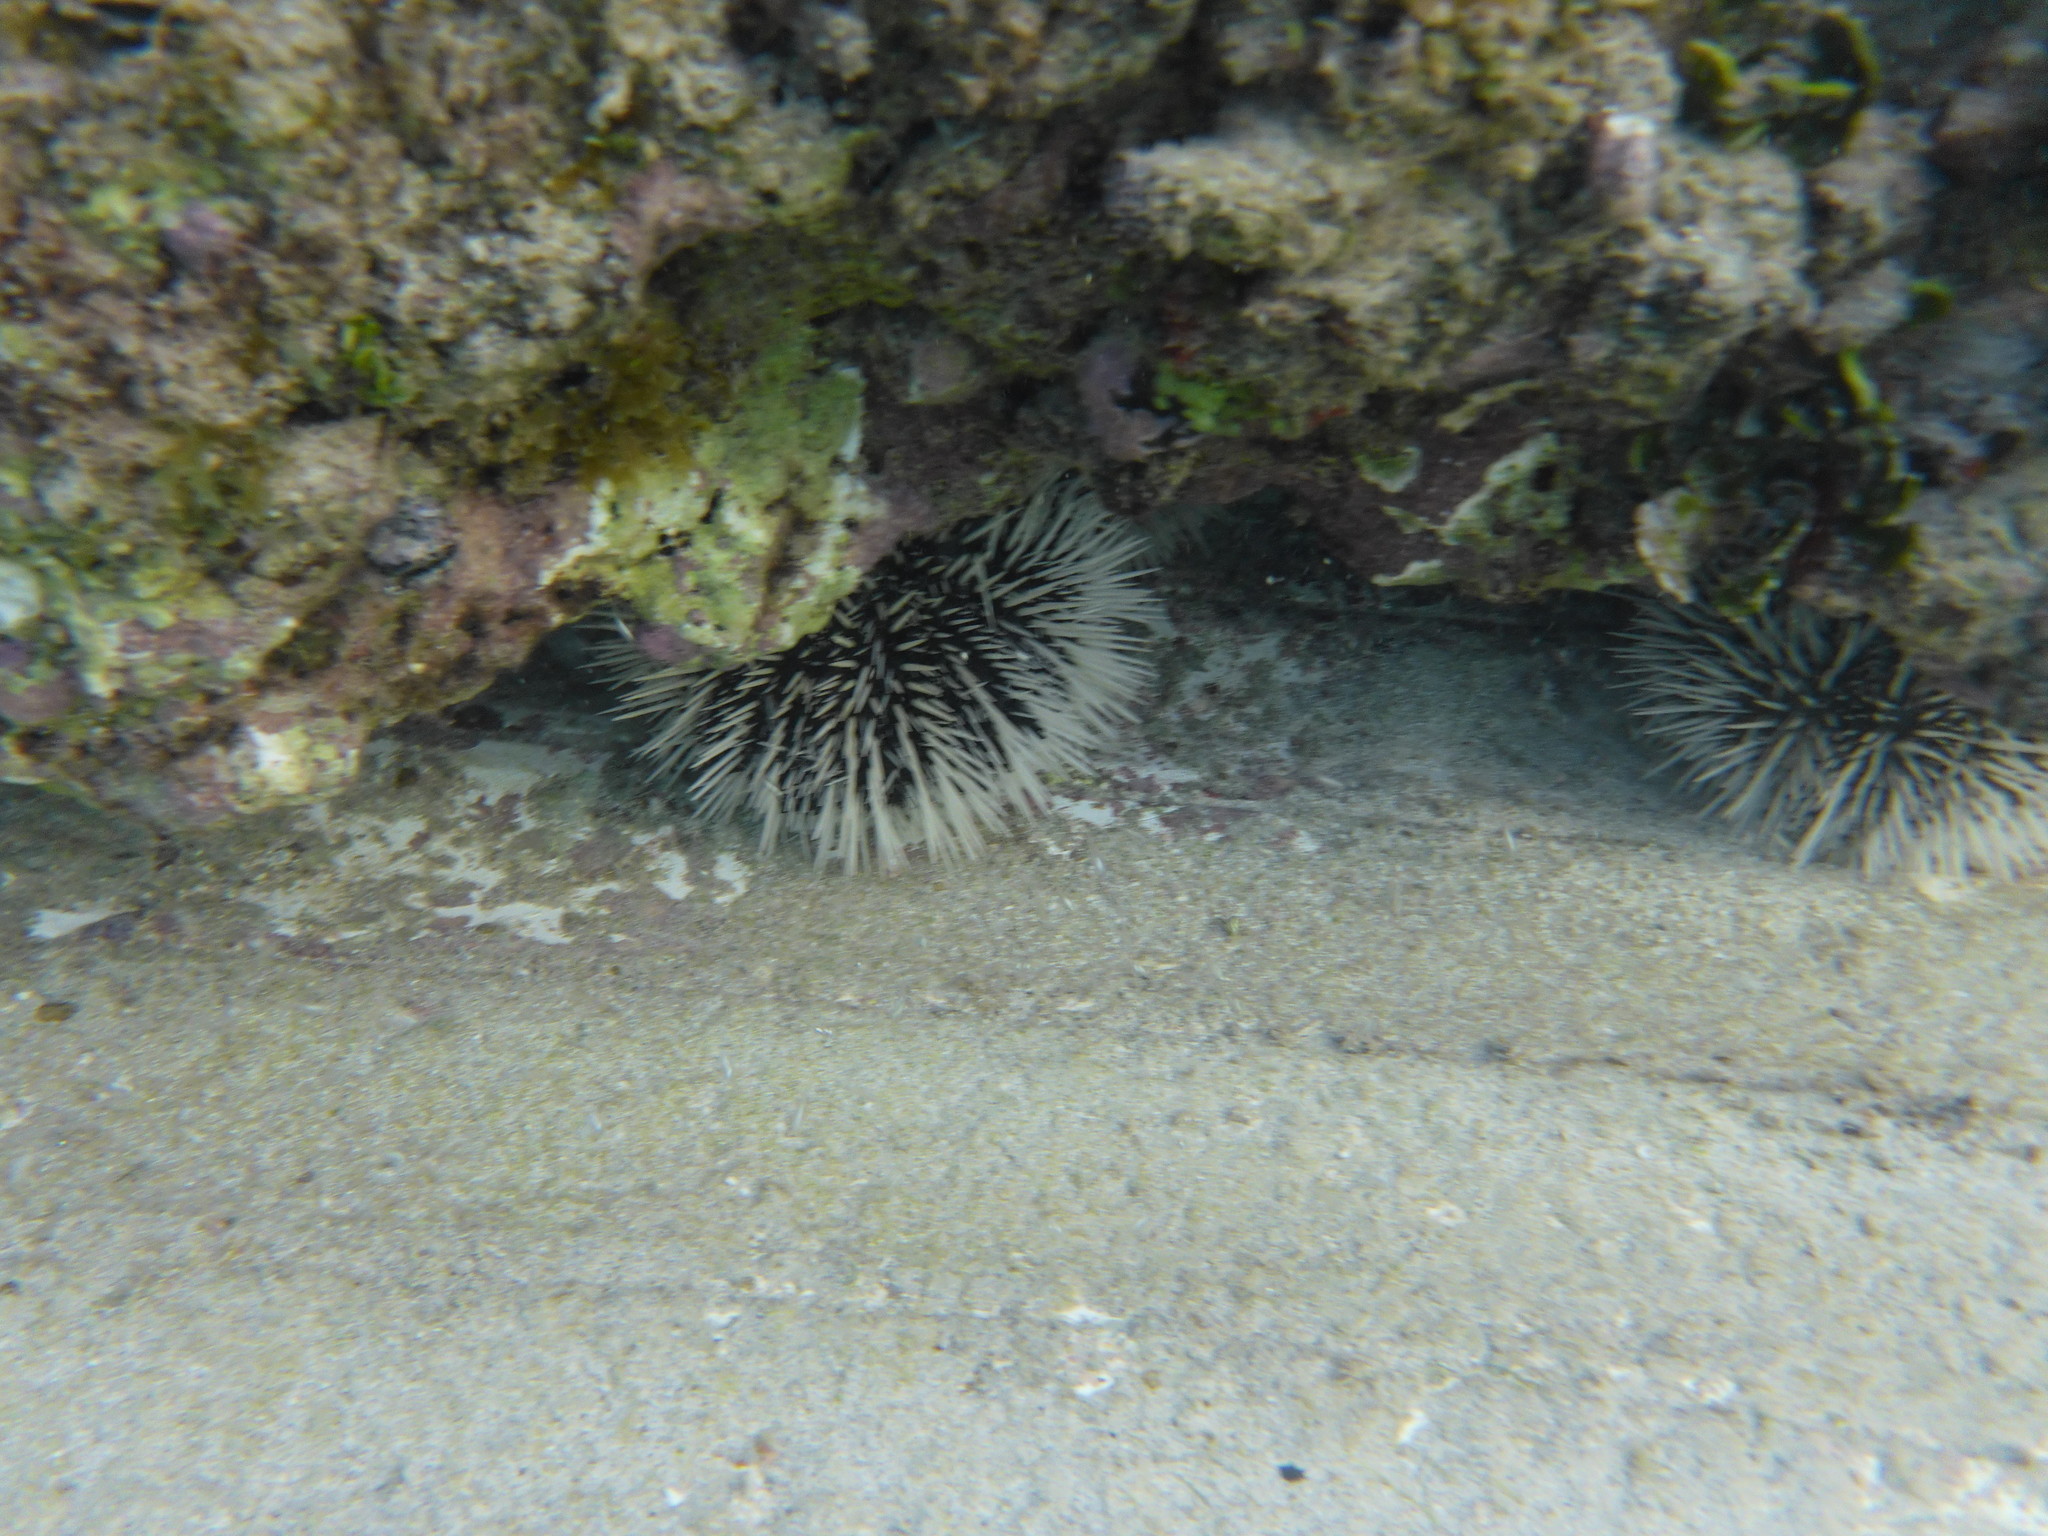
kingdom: Animalia
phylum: Echinodermata
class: Echinoidea
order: Camarodonta
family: Toxopneustidae
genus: Tripneustes
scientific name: Tripneustes ventricosus
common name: West indian sea egg
